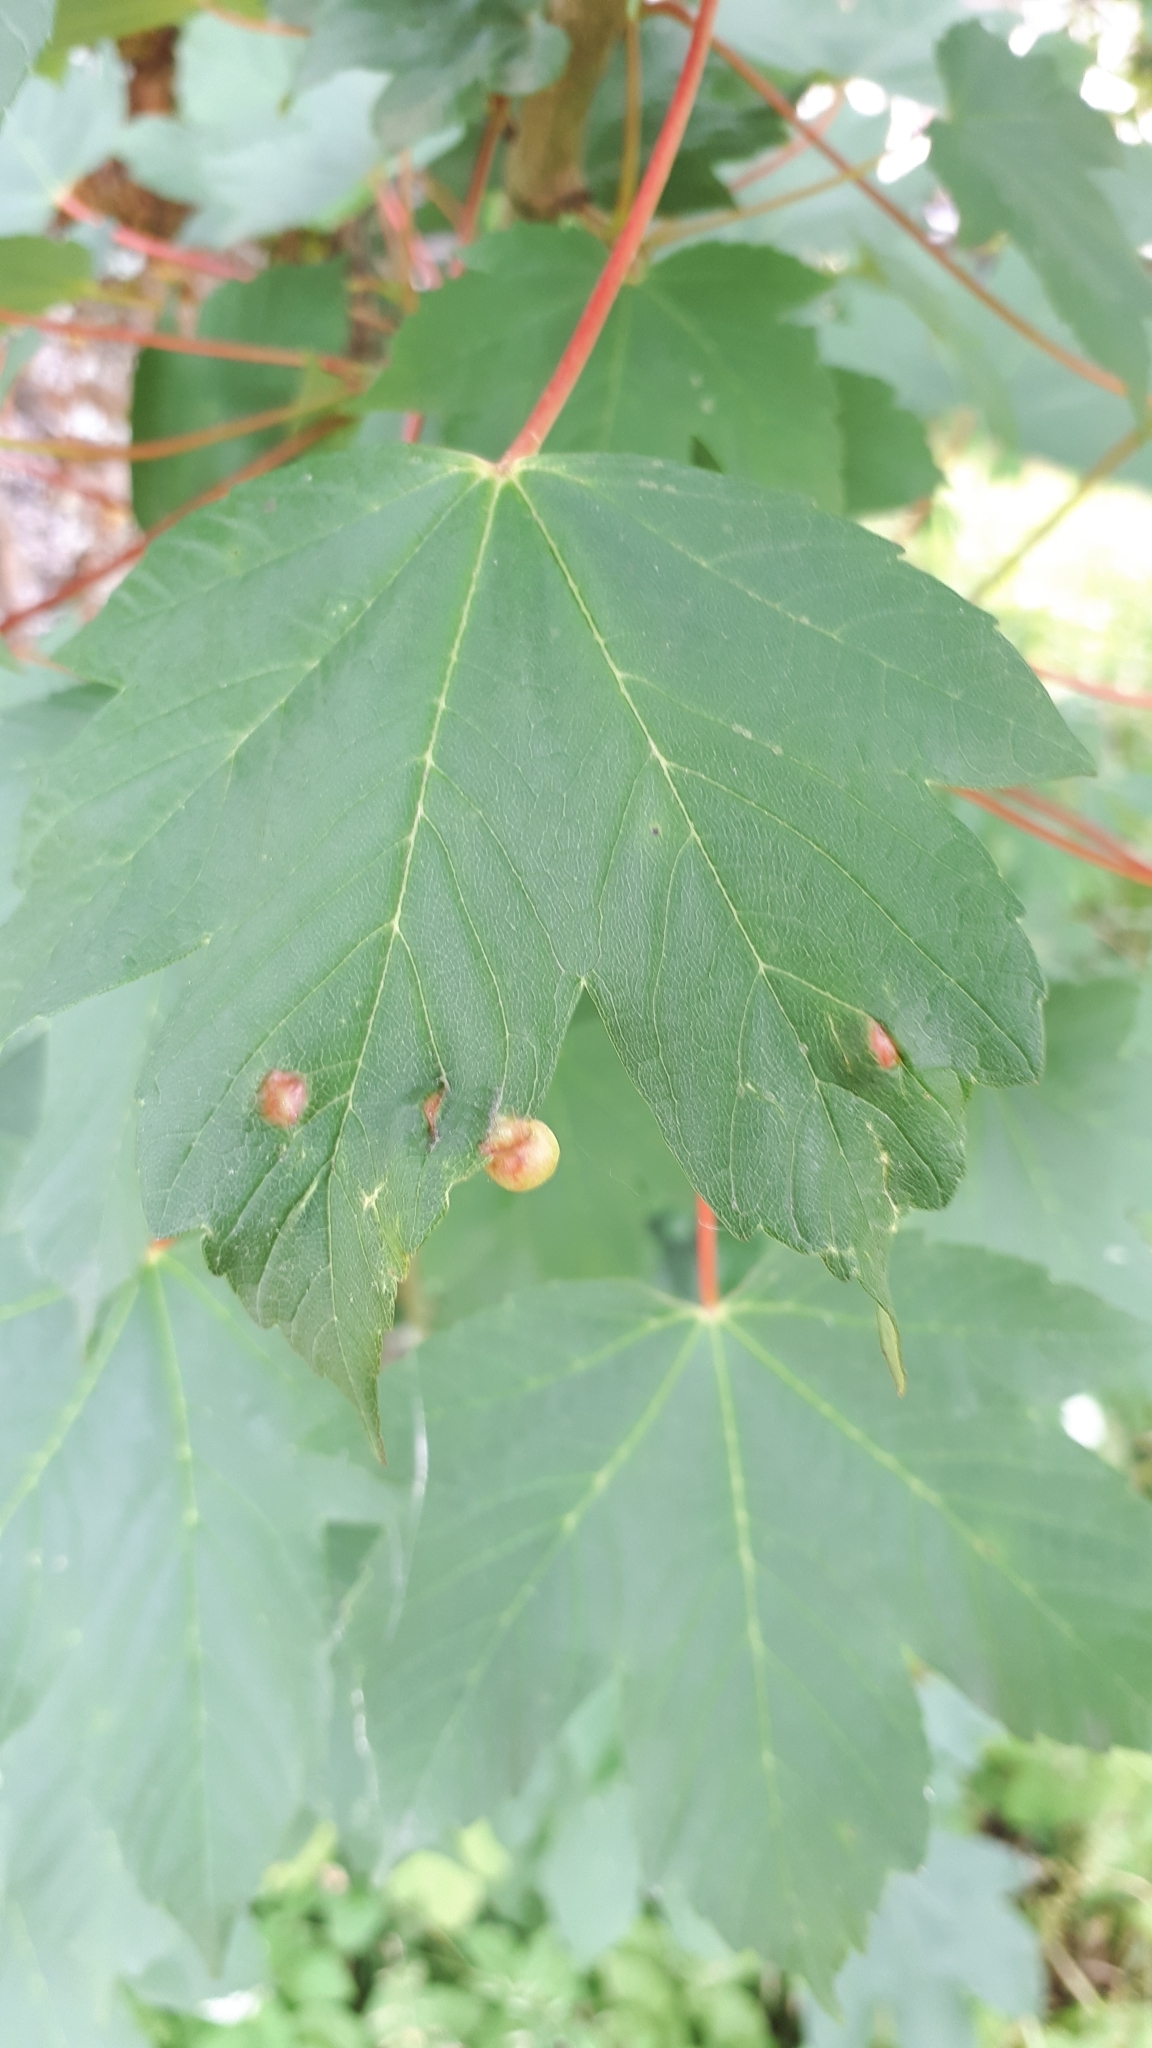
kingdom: Animalia
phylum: Arthropoda
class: Insecta
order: Hymenoptera
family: Cynipidae
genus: Pediaspis
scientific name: Pediaspis aceris
